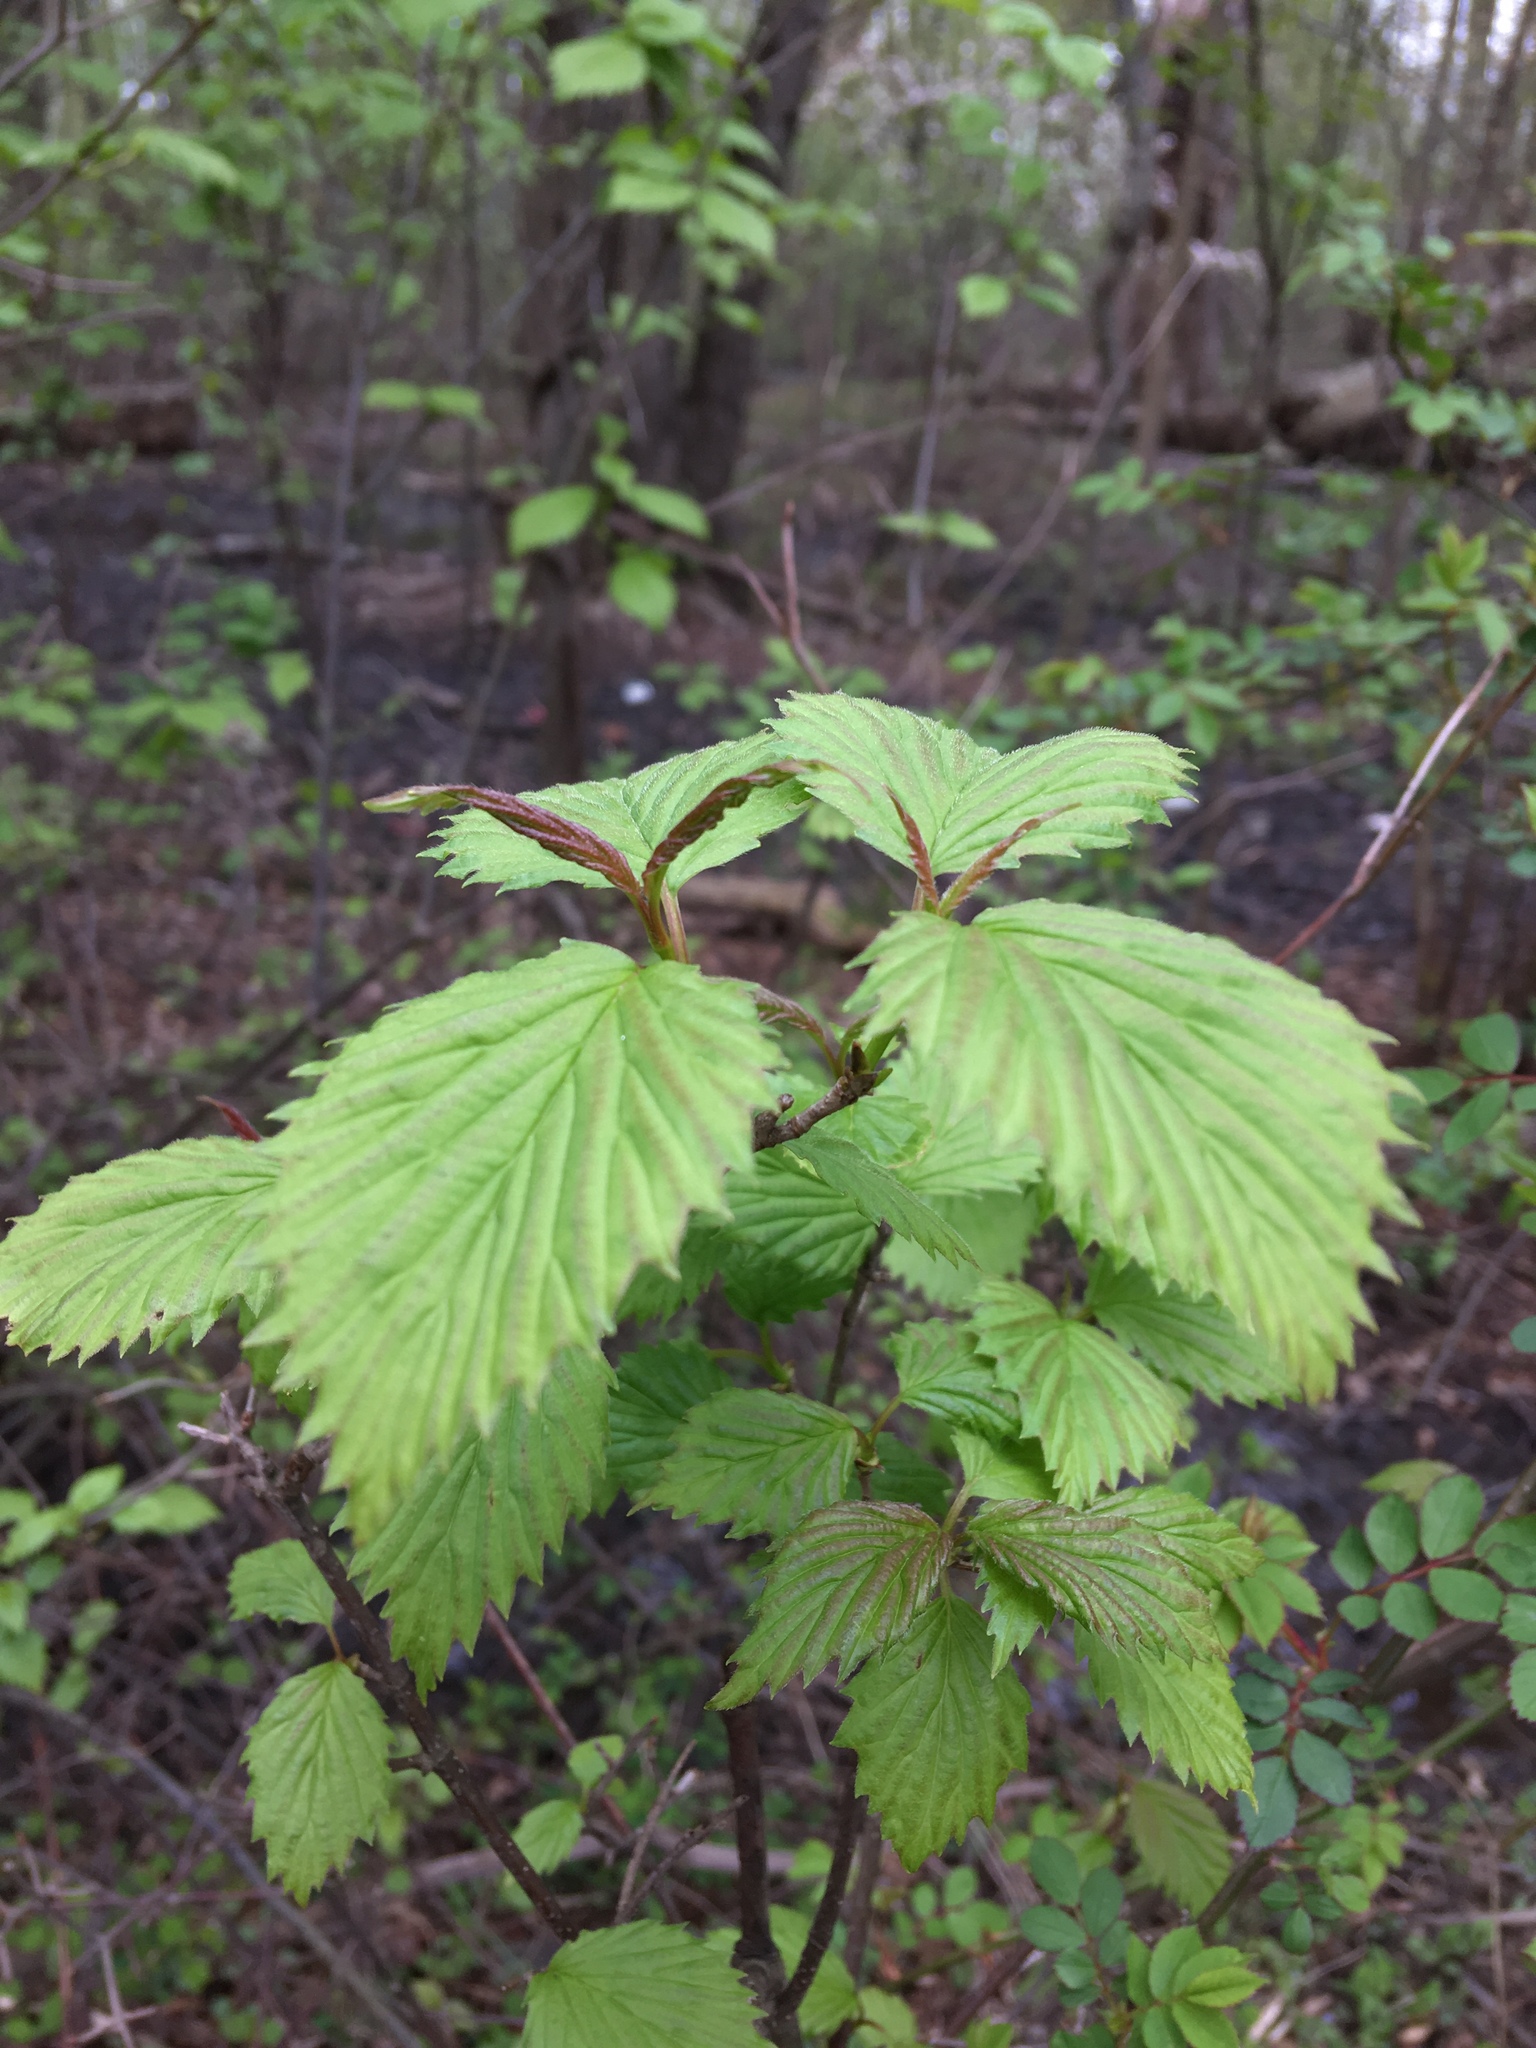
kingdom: Plantae
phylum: Tracheophyta
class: Magnoliopsida
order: Dipsacales
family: Viburnaceae
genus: Viburnum
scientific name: Viburnum dentatum
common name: Arrow-wood
